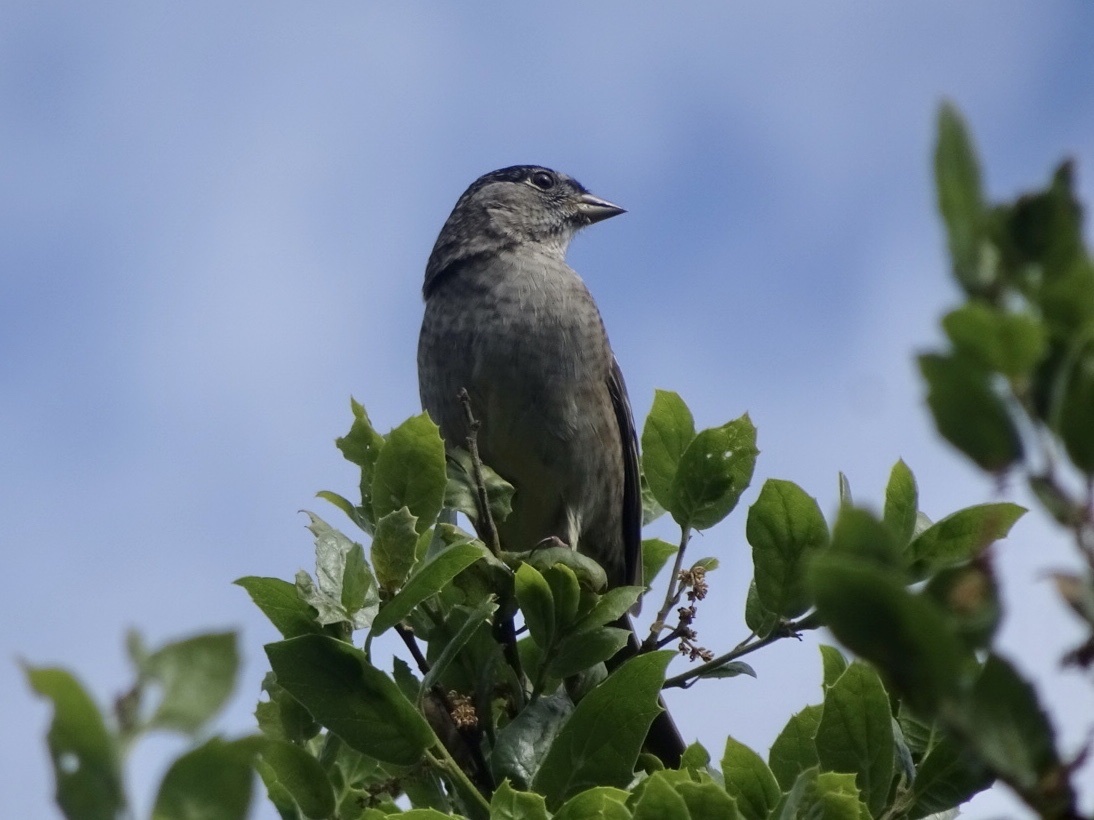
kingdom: Animalia
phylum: Chordata
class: Aves
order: Passeriformes
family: Passerellidae
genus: Zonotrichia
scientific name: Zonotrichia atricapilla
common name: Golden-crowned sparrow
